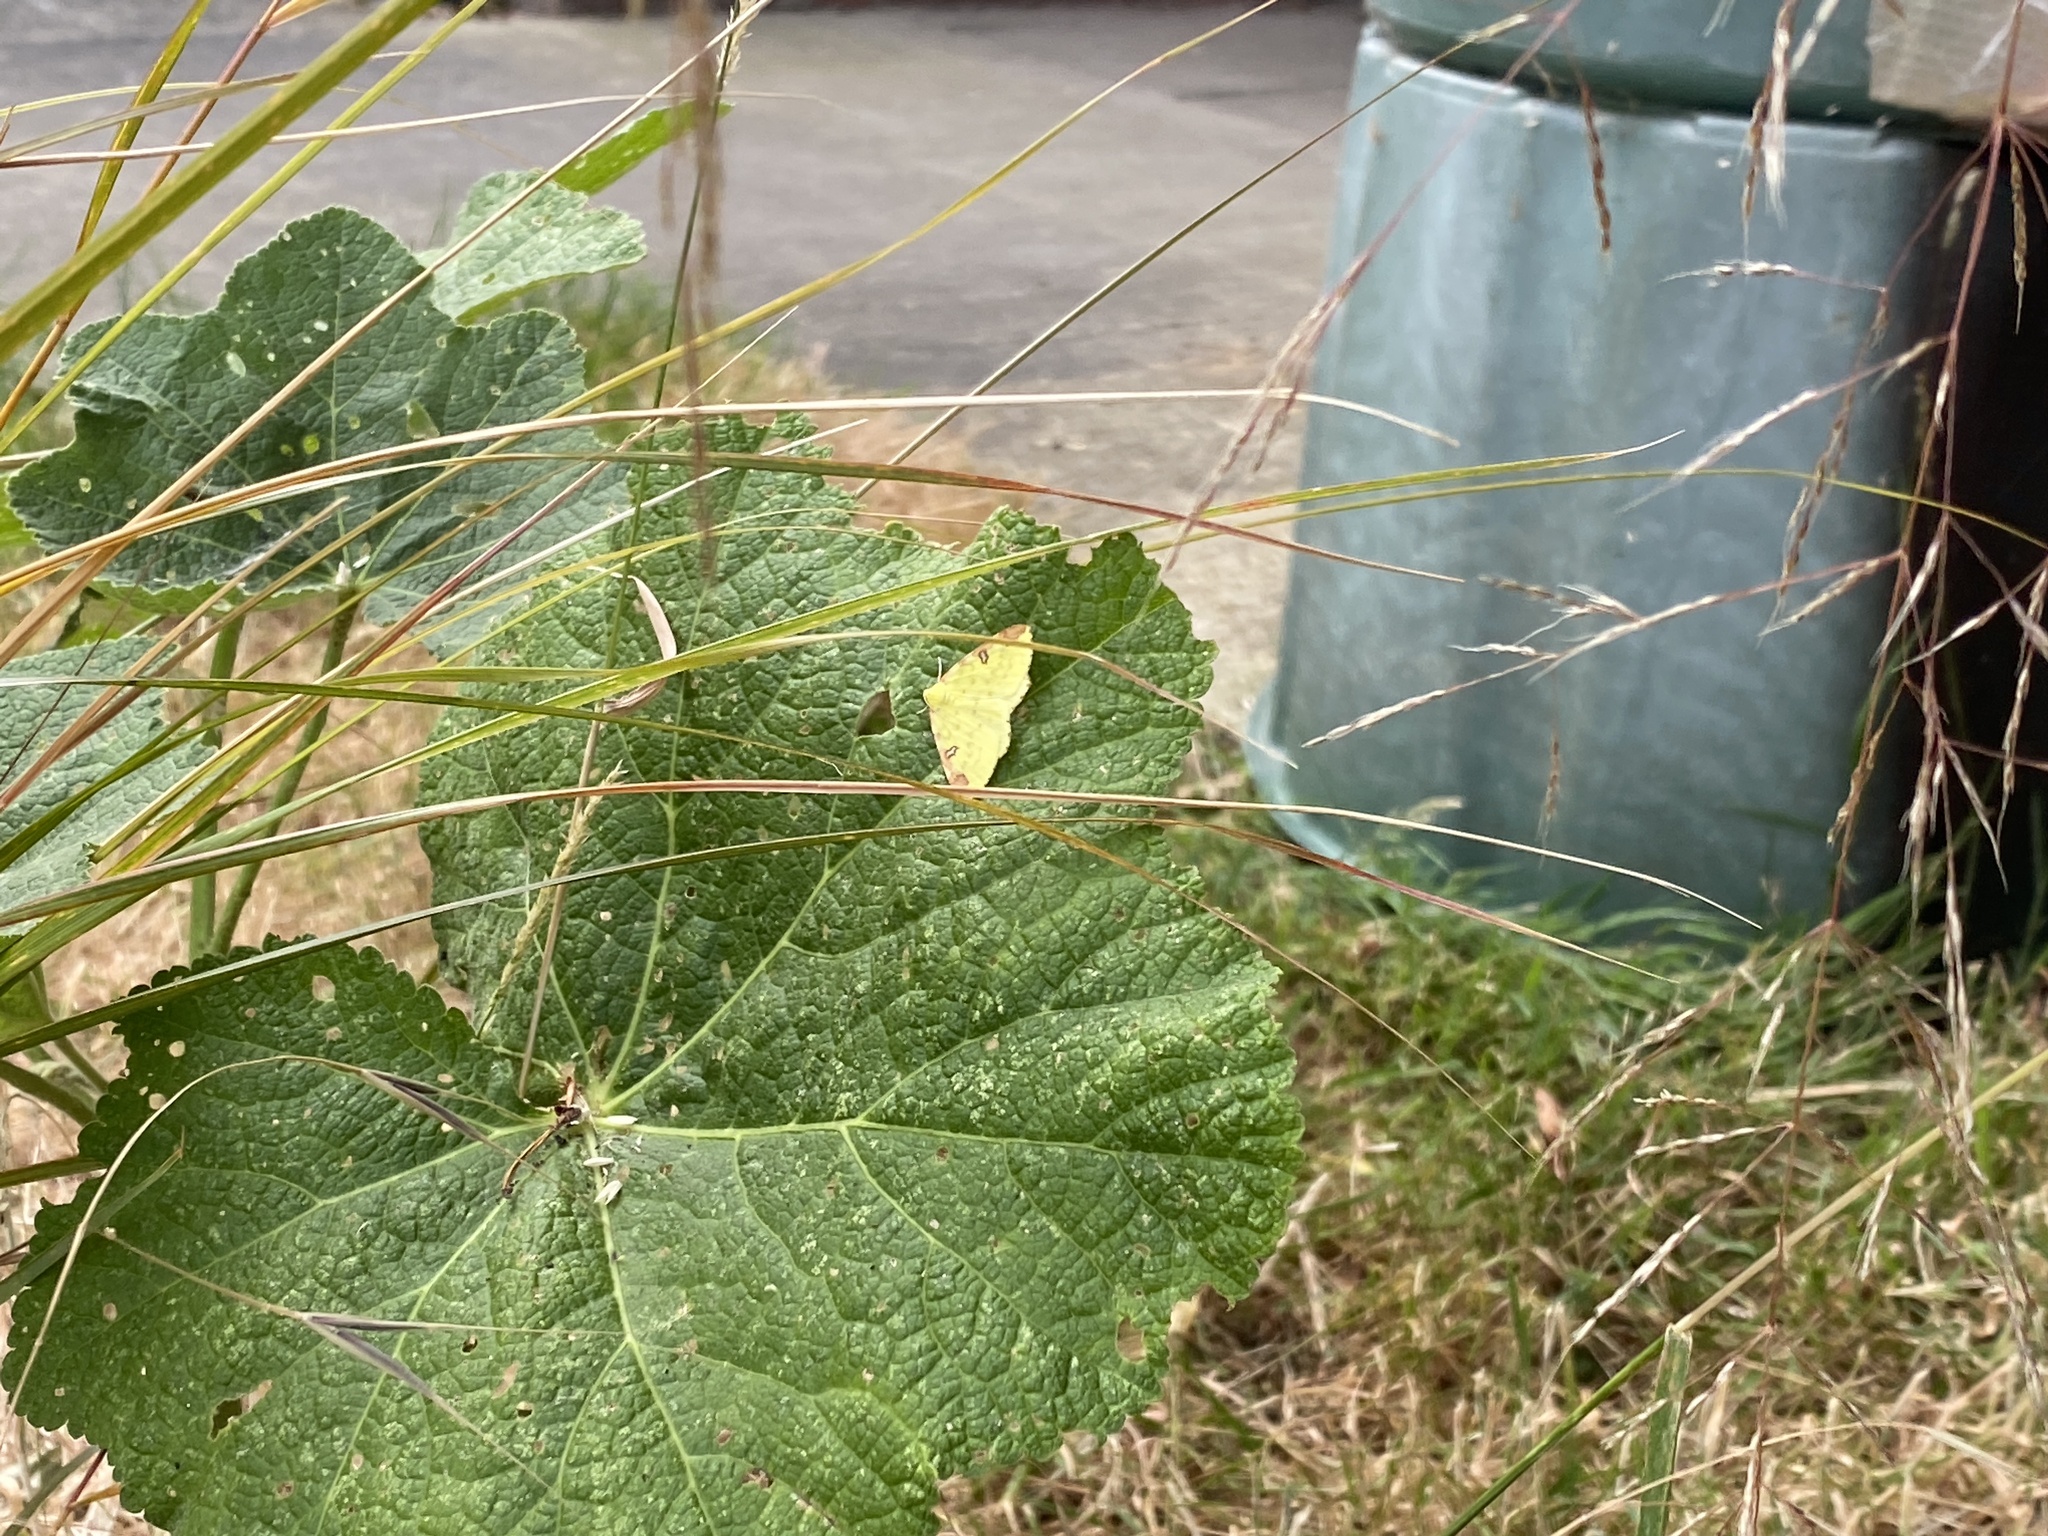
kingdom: Animalia
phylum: Arthropoda
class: Insecta
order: Lepidoptera
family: Geometridae
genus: Opisthograptis
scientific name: Opisthograptis luteolata
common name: Brimstone moth
